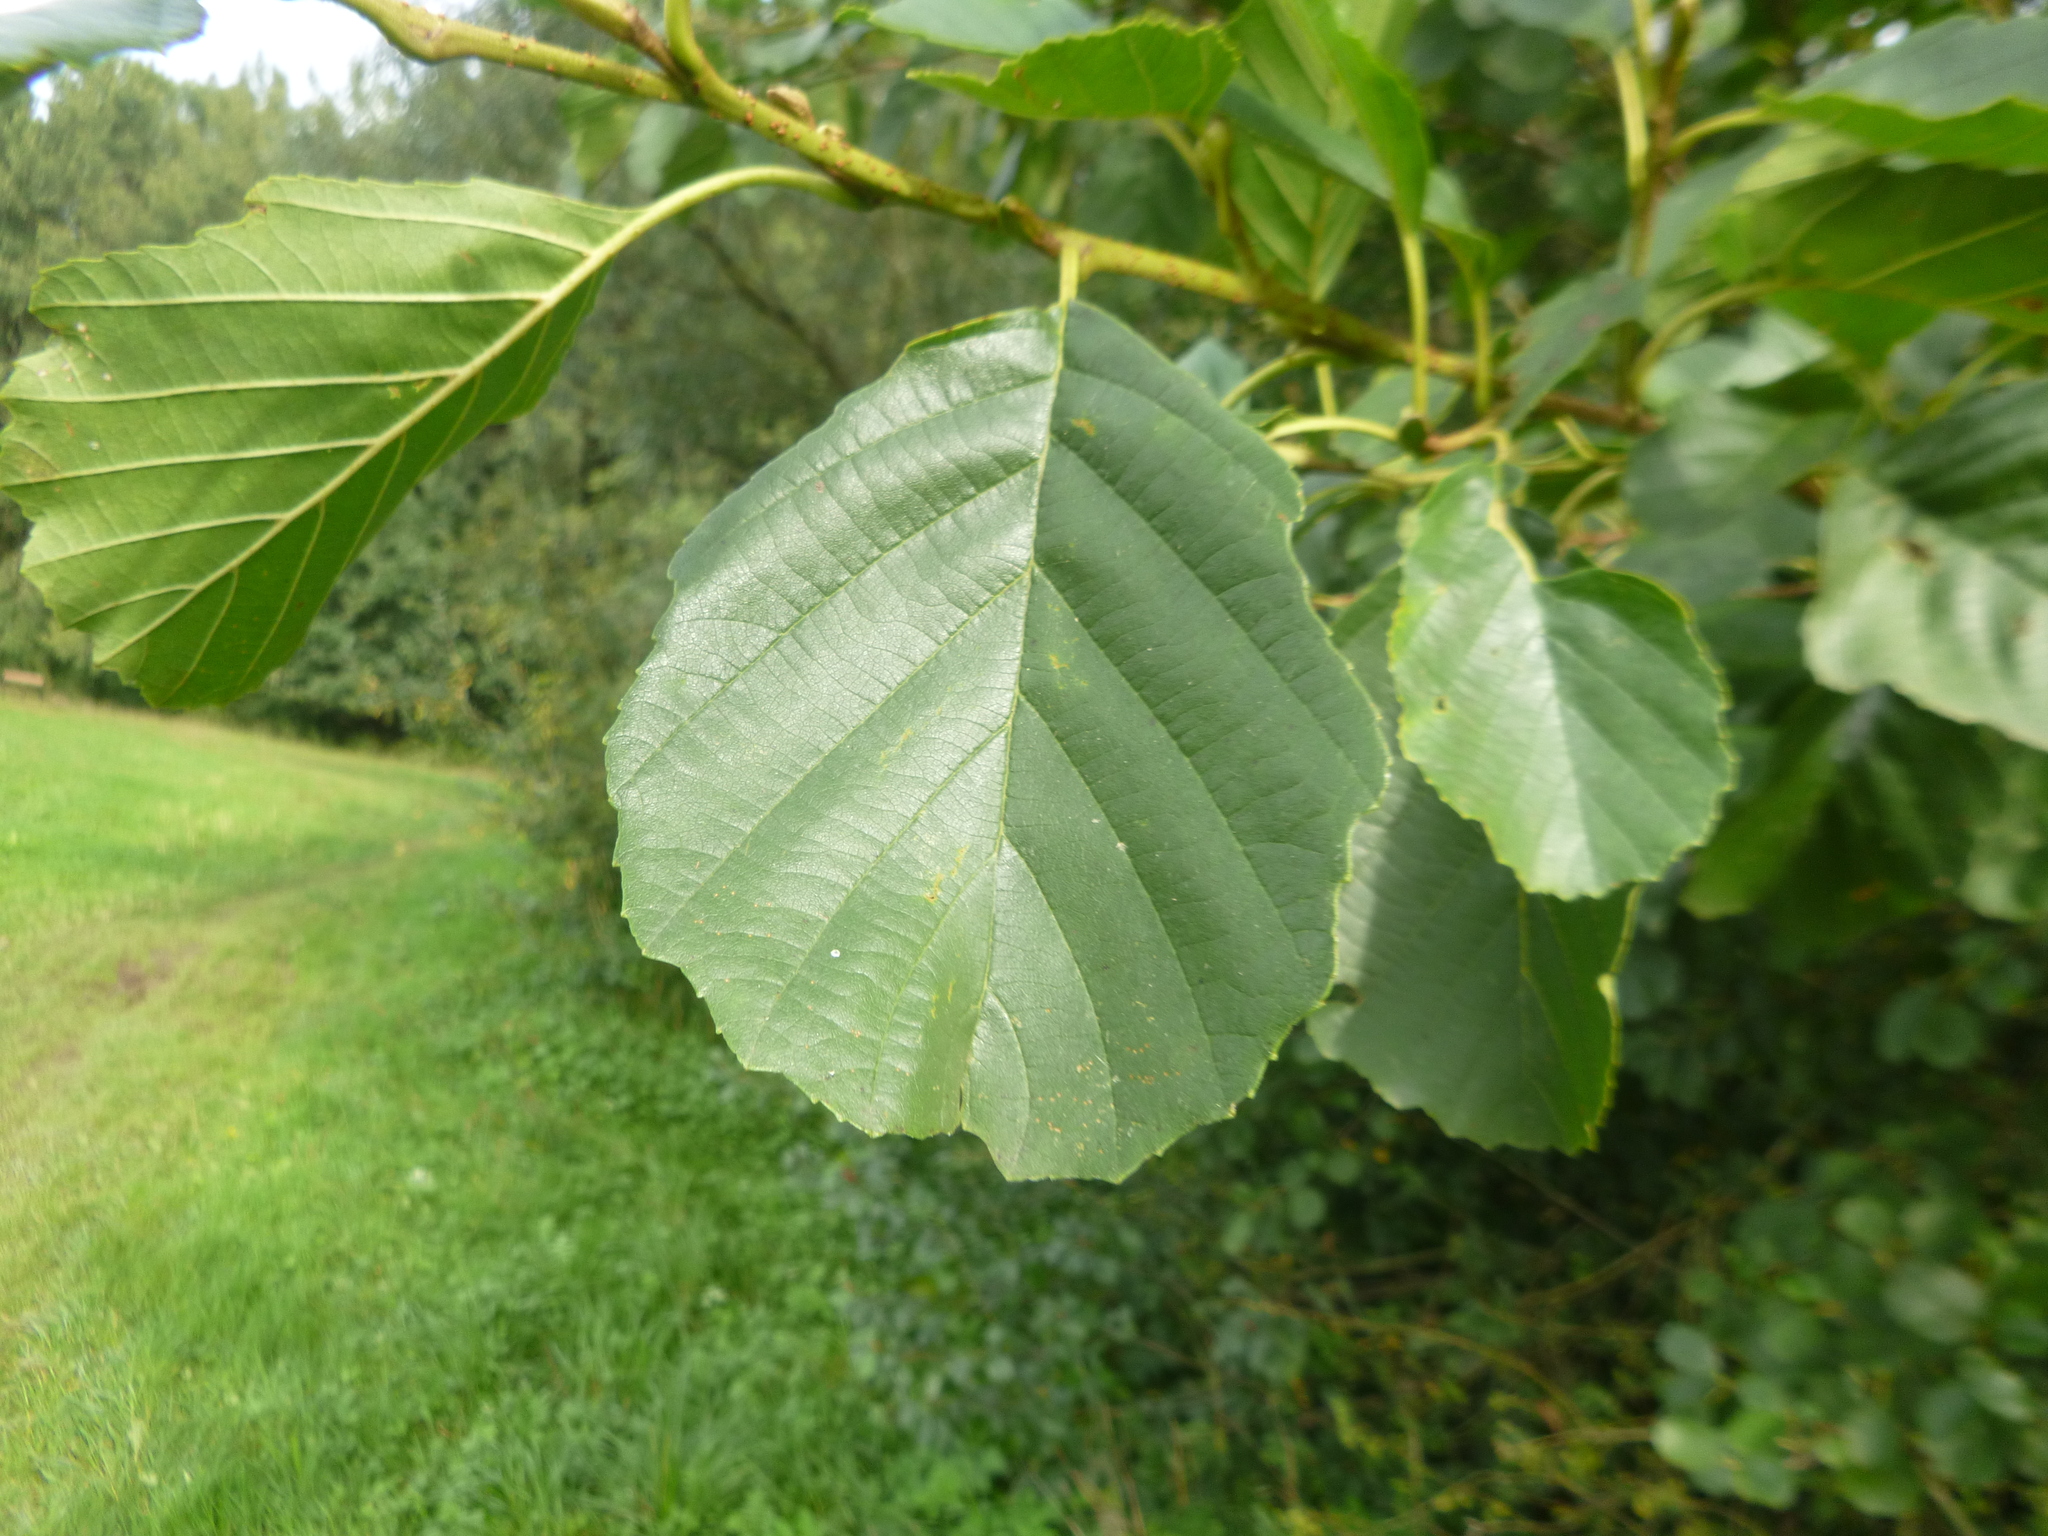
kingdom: Plantae
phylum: Tracheophyta
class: Magnoliopsida
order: Fagales
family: Betulaceae
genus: Alnus
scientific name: Alnus glutinosa
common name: Black alder
